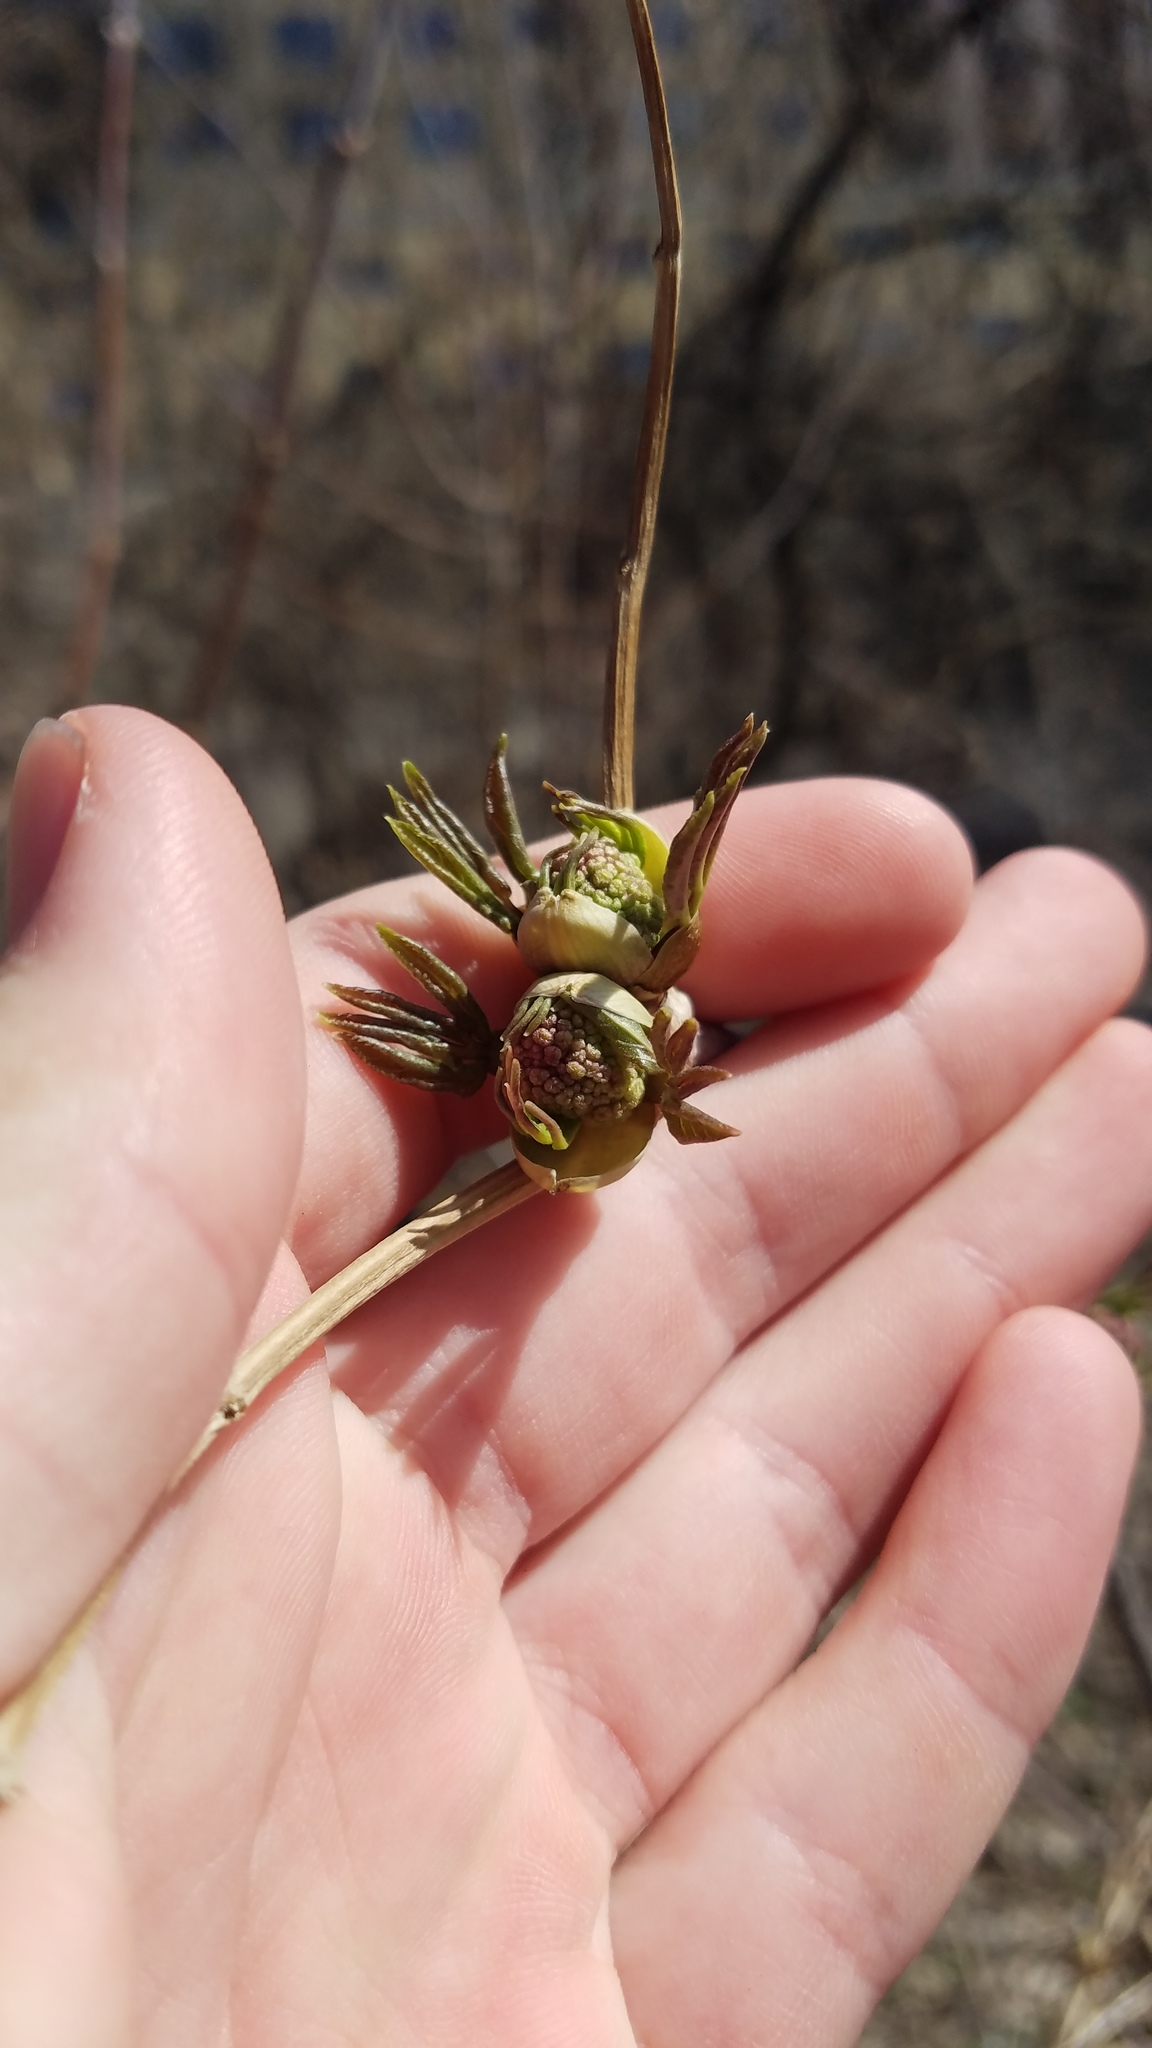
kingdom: Plantae
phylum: Tracheophyta
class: Magnoliopsida
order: Dipsacales
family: Viburnaceae
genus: Sambucus
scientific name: Sambucus racemosa
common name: Red-berried elder
